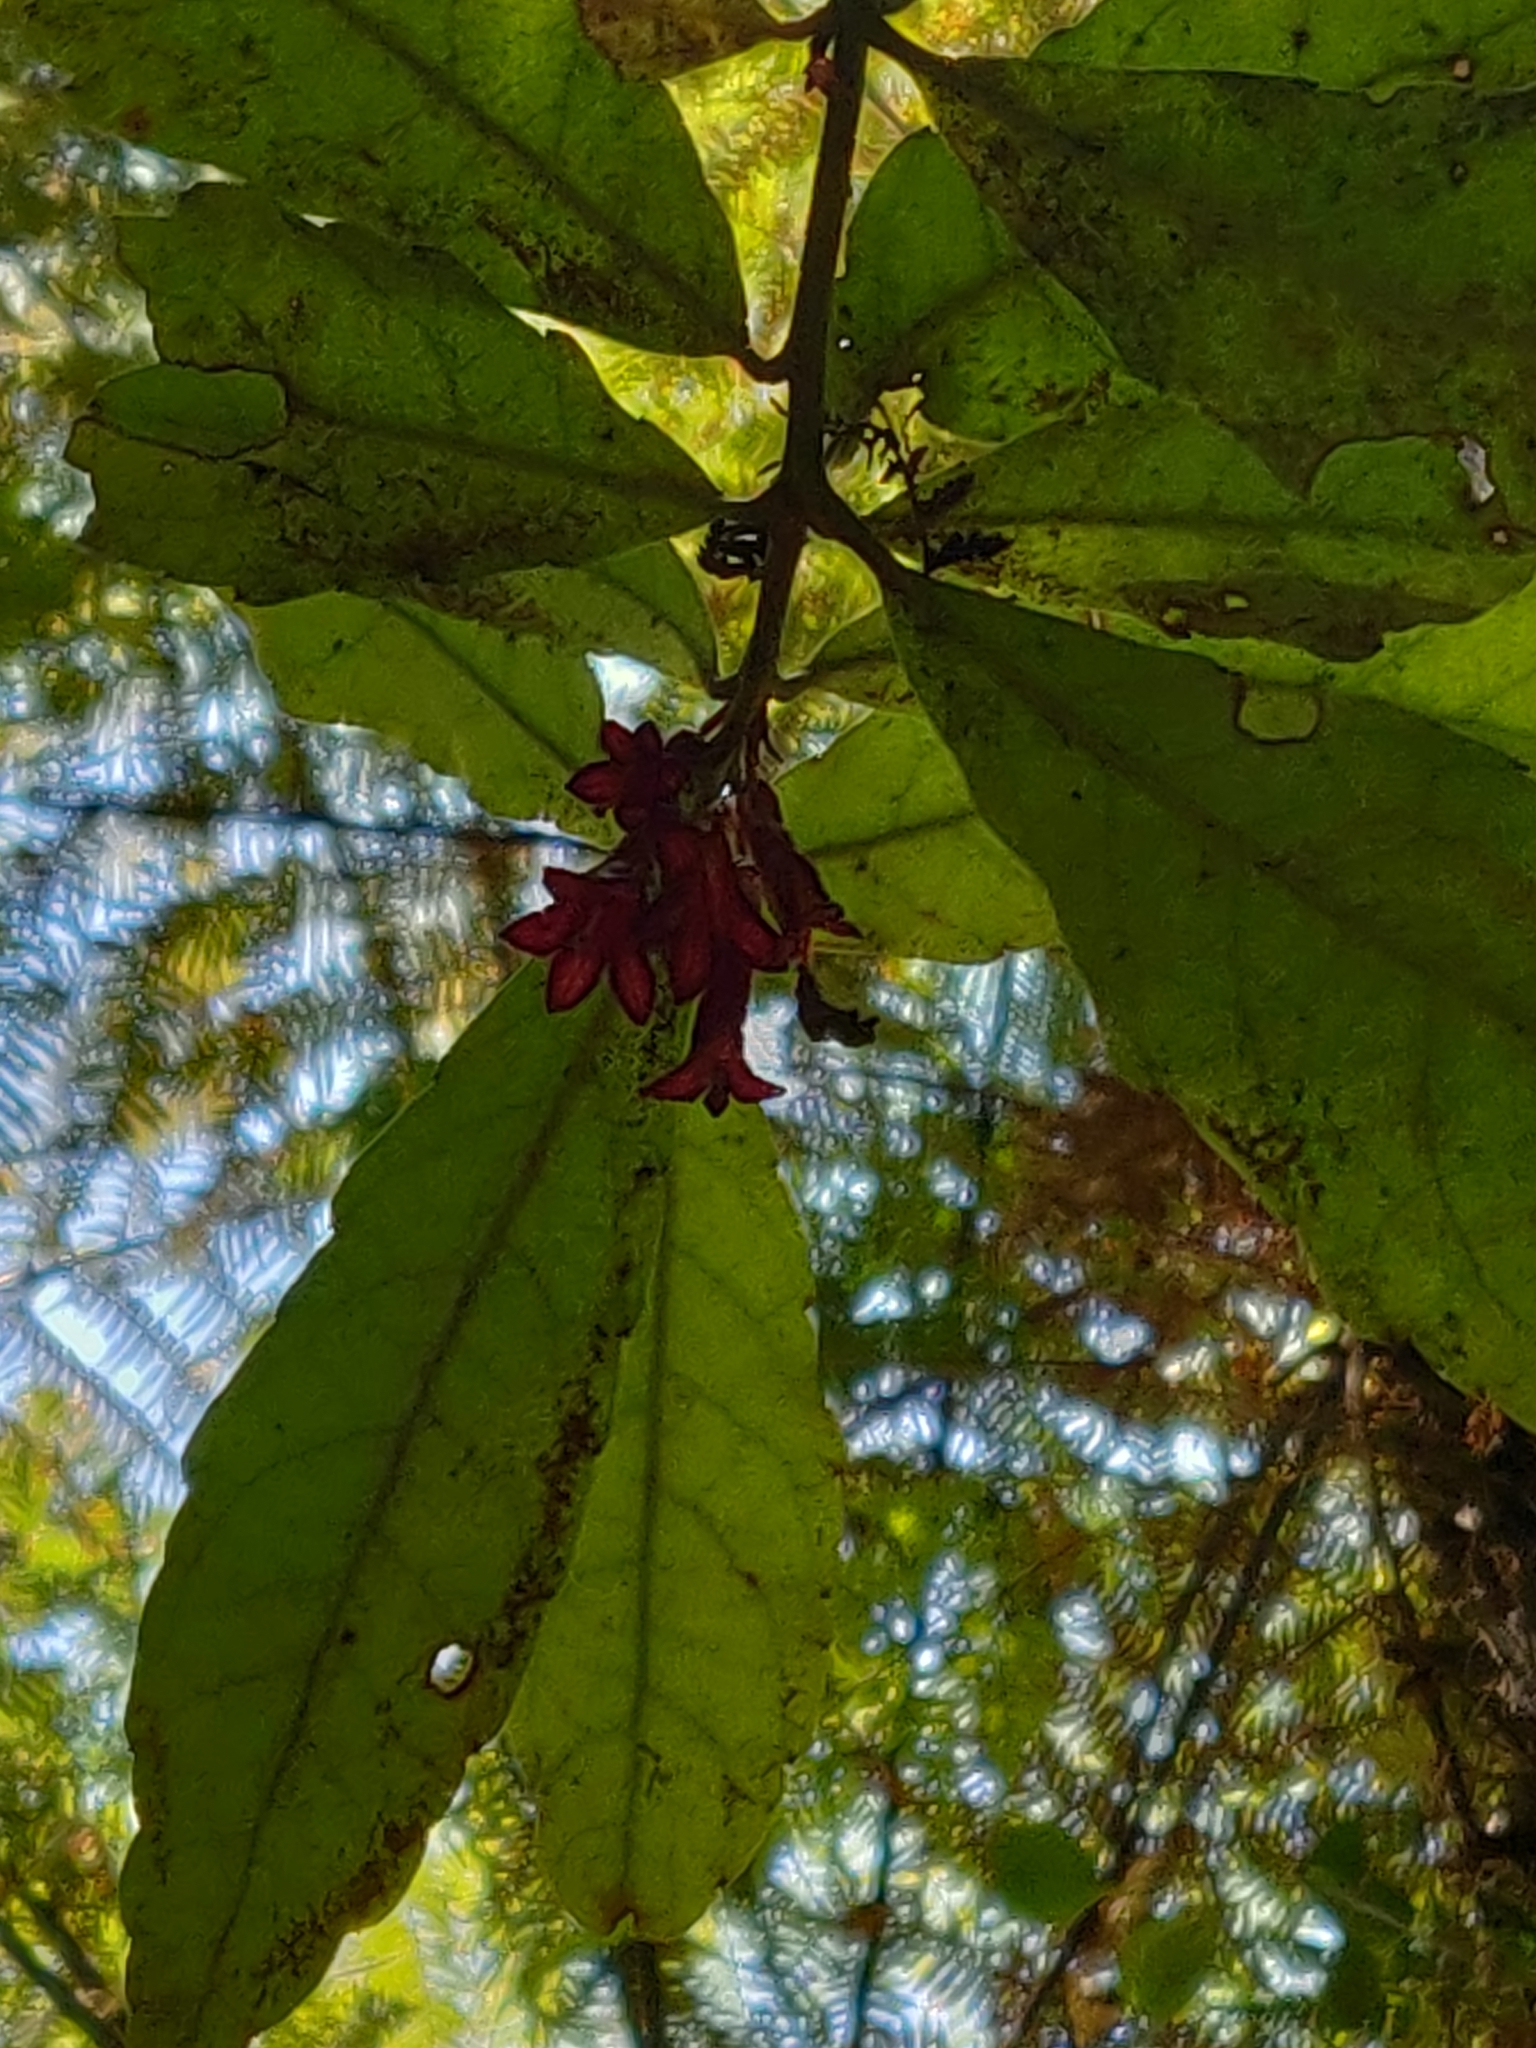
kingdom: Plantae
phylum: Tracheophyta
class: Magnoliopsida
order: Asterales
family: Alseuosmiaceae
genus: Alseuosmia
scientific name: Alseuosmia macrophylla
